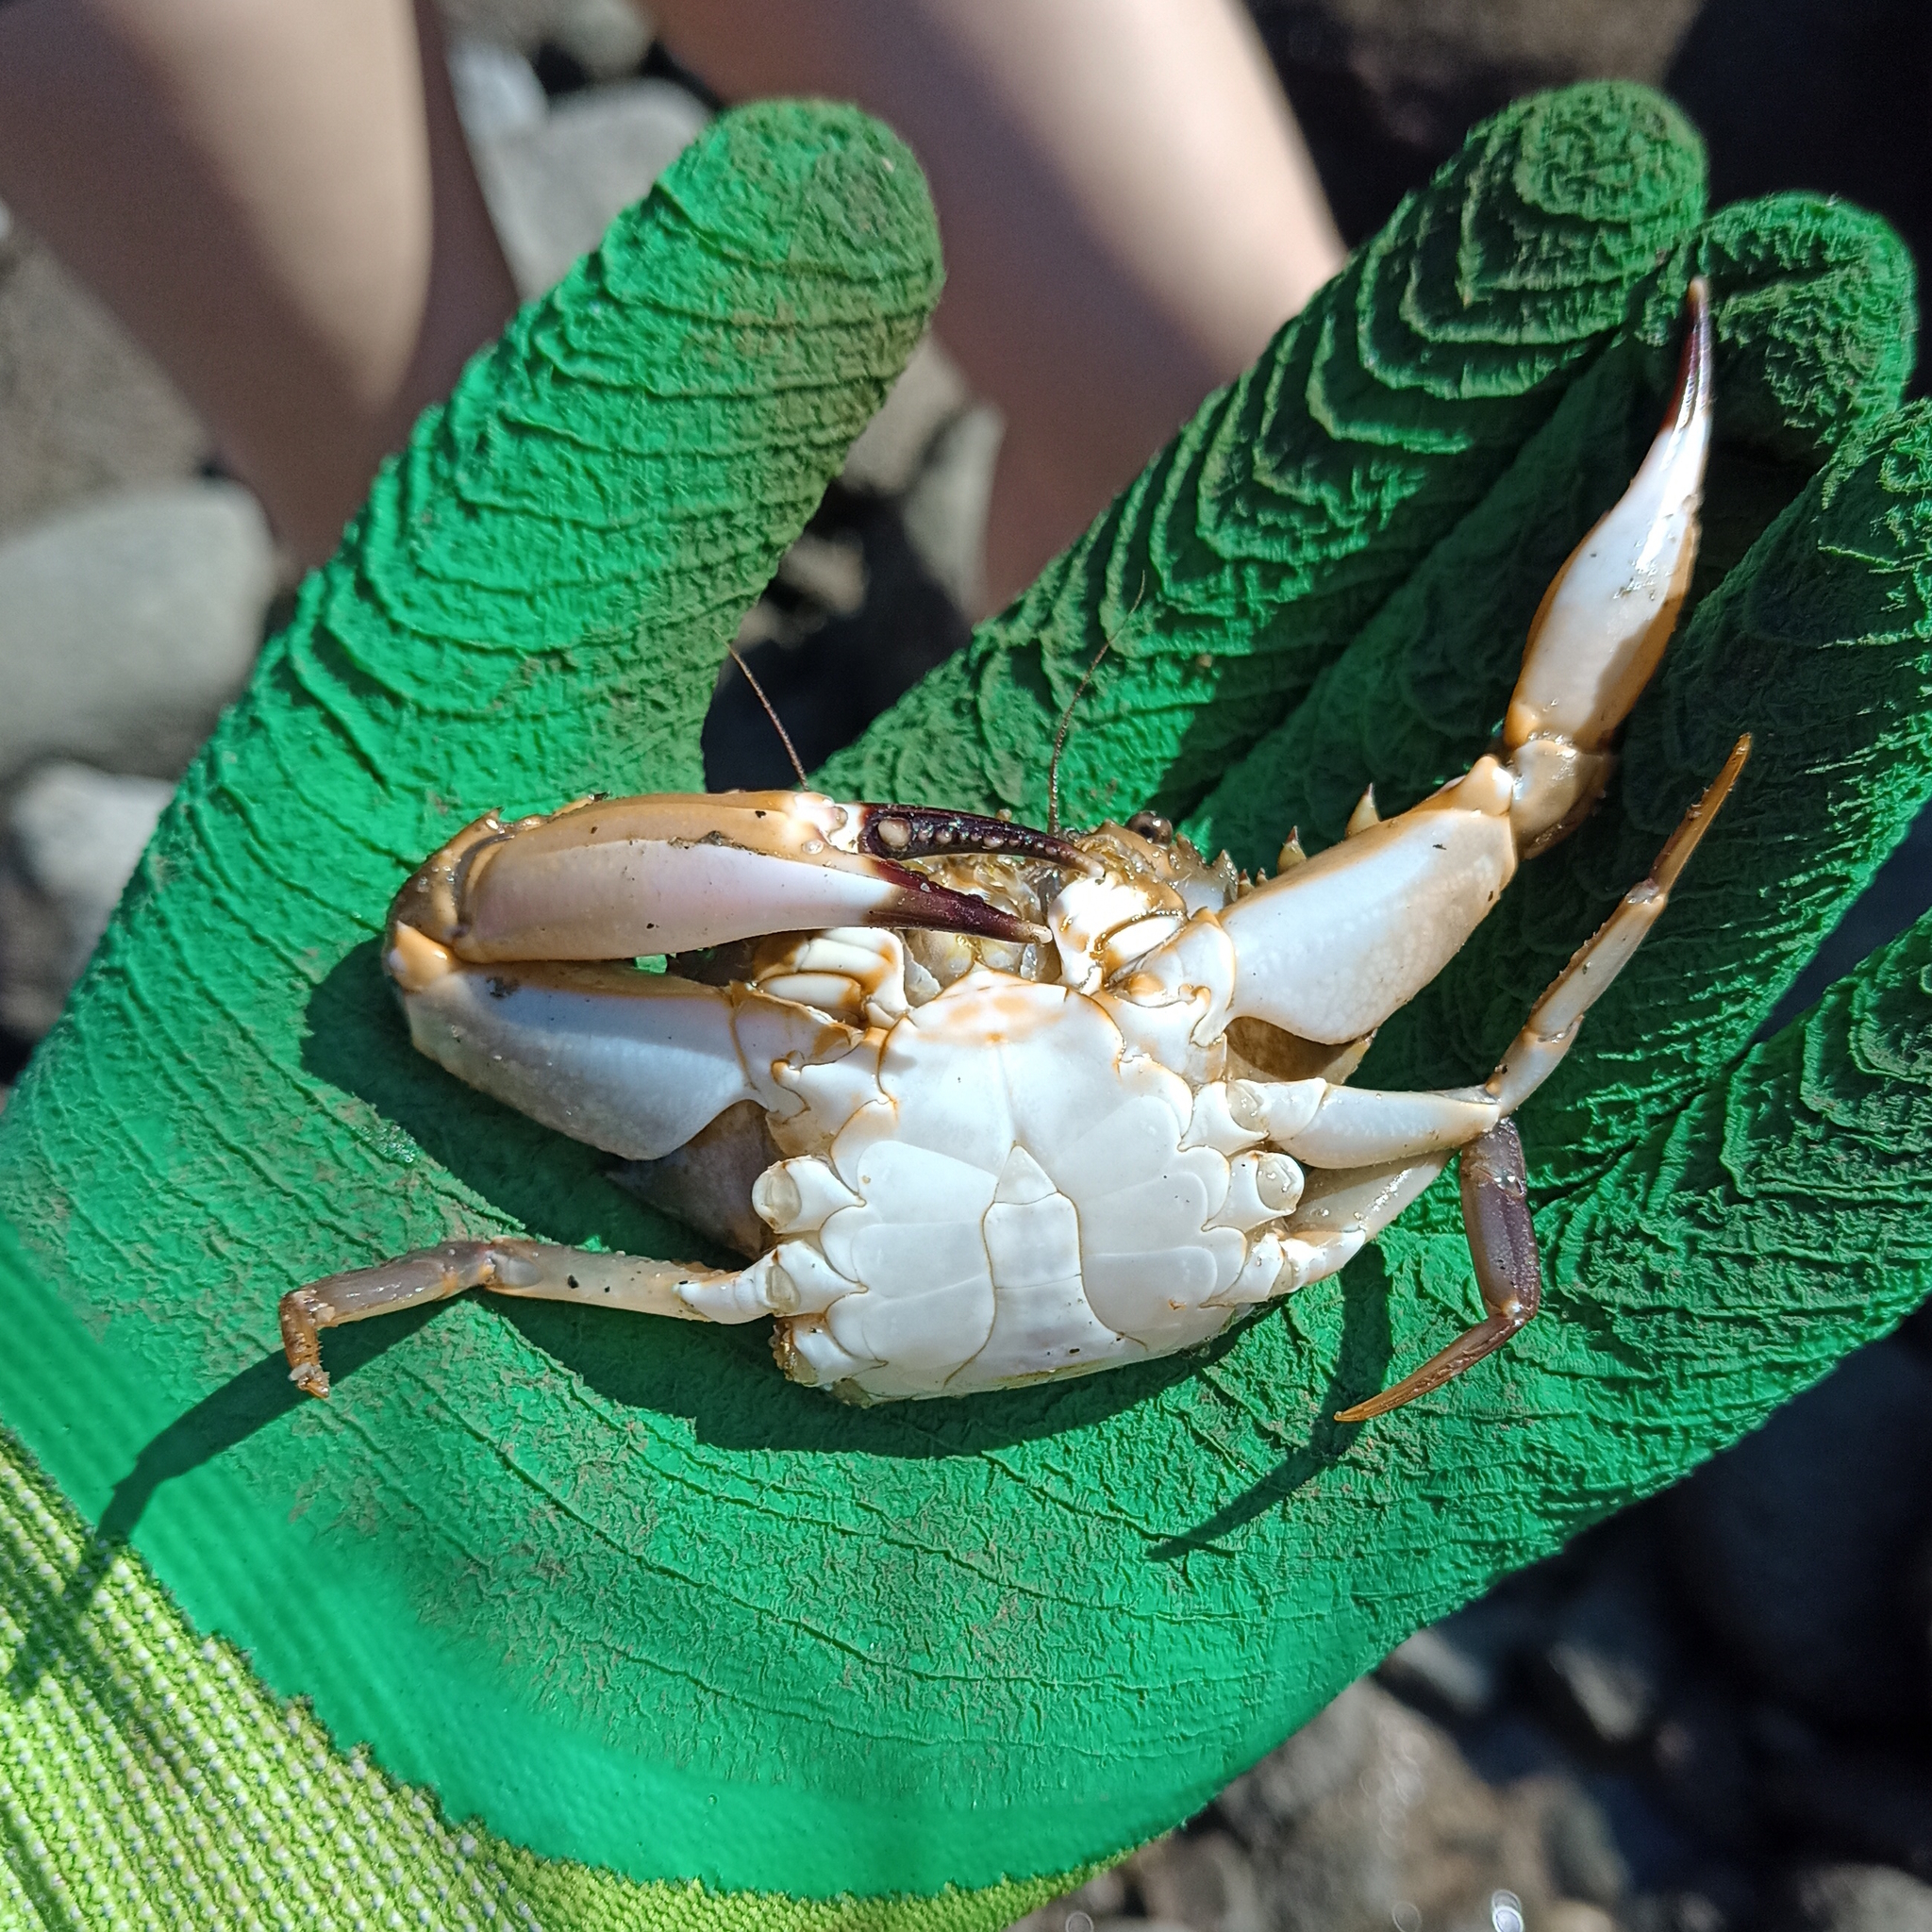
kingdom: Animalia
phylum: Arthropoda
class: Malacostraca
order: Decapoda
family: Portunidae
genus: Charybdis
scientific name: Charybdis hellerii
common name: Spiny hands
